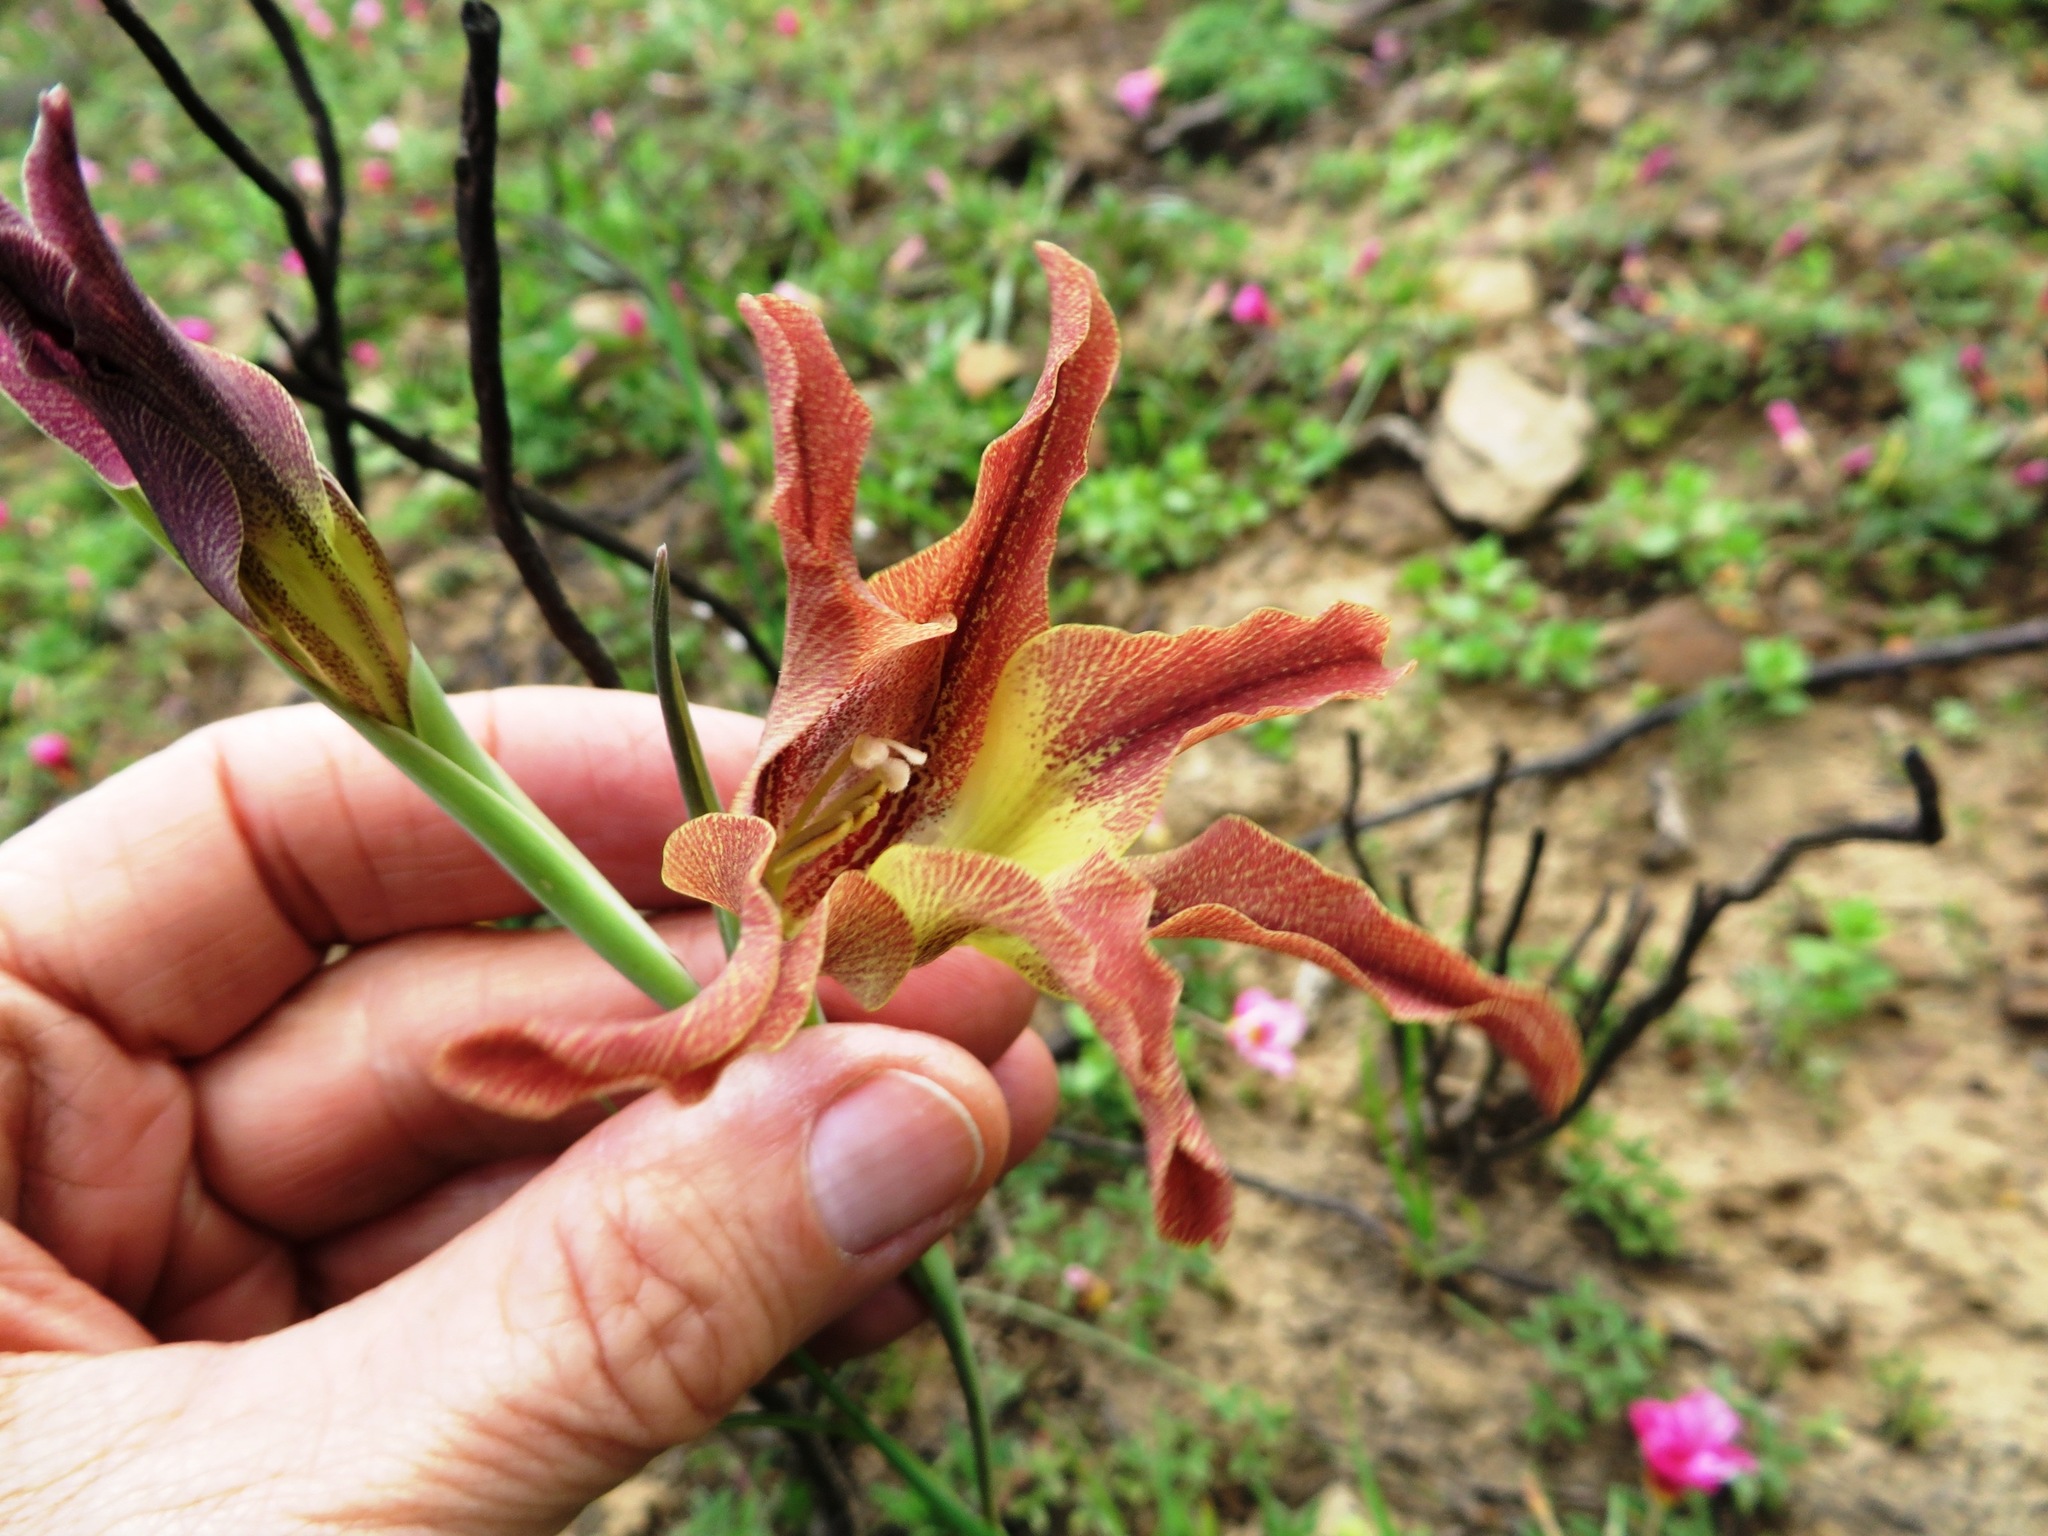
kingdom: Plantae
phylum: Tracheophyta
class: Liliopsida
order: Asparagales
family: Iridaceae
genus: Gladiolus
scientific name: Gladiolus liliaceus
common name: Large brown afrikaner
